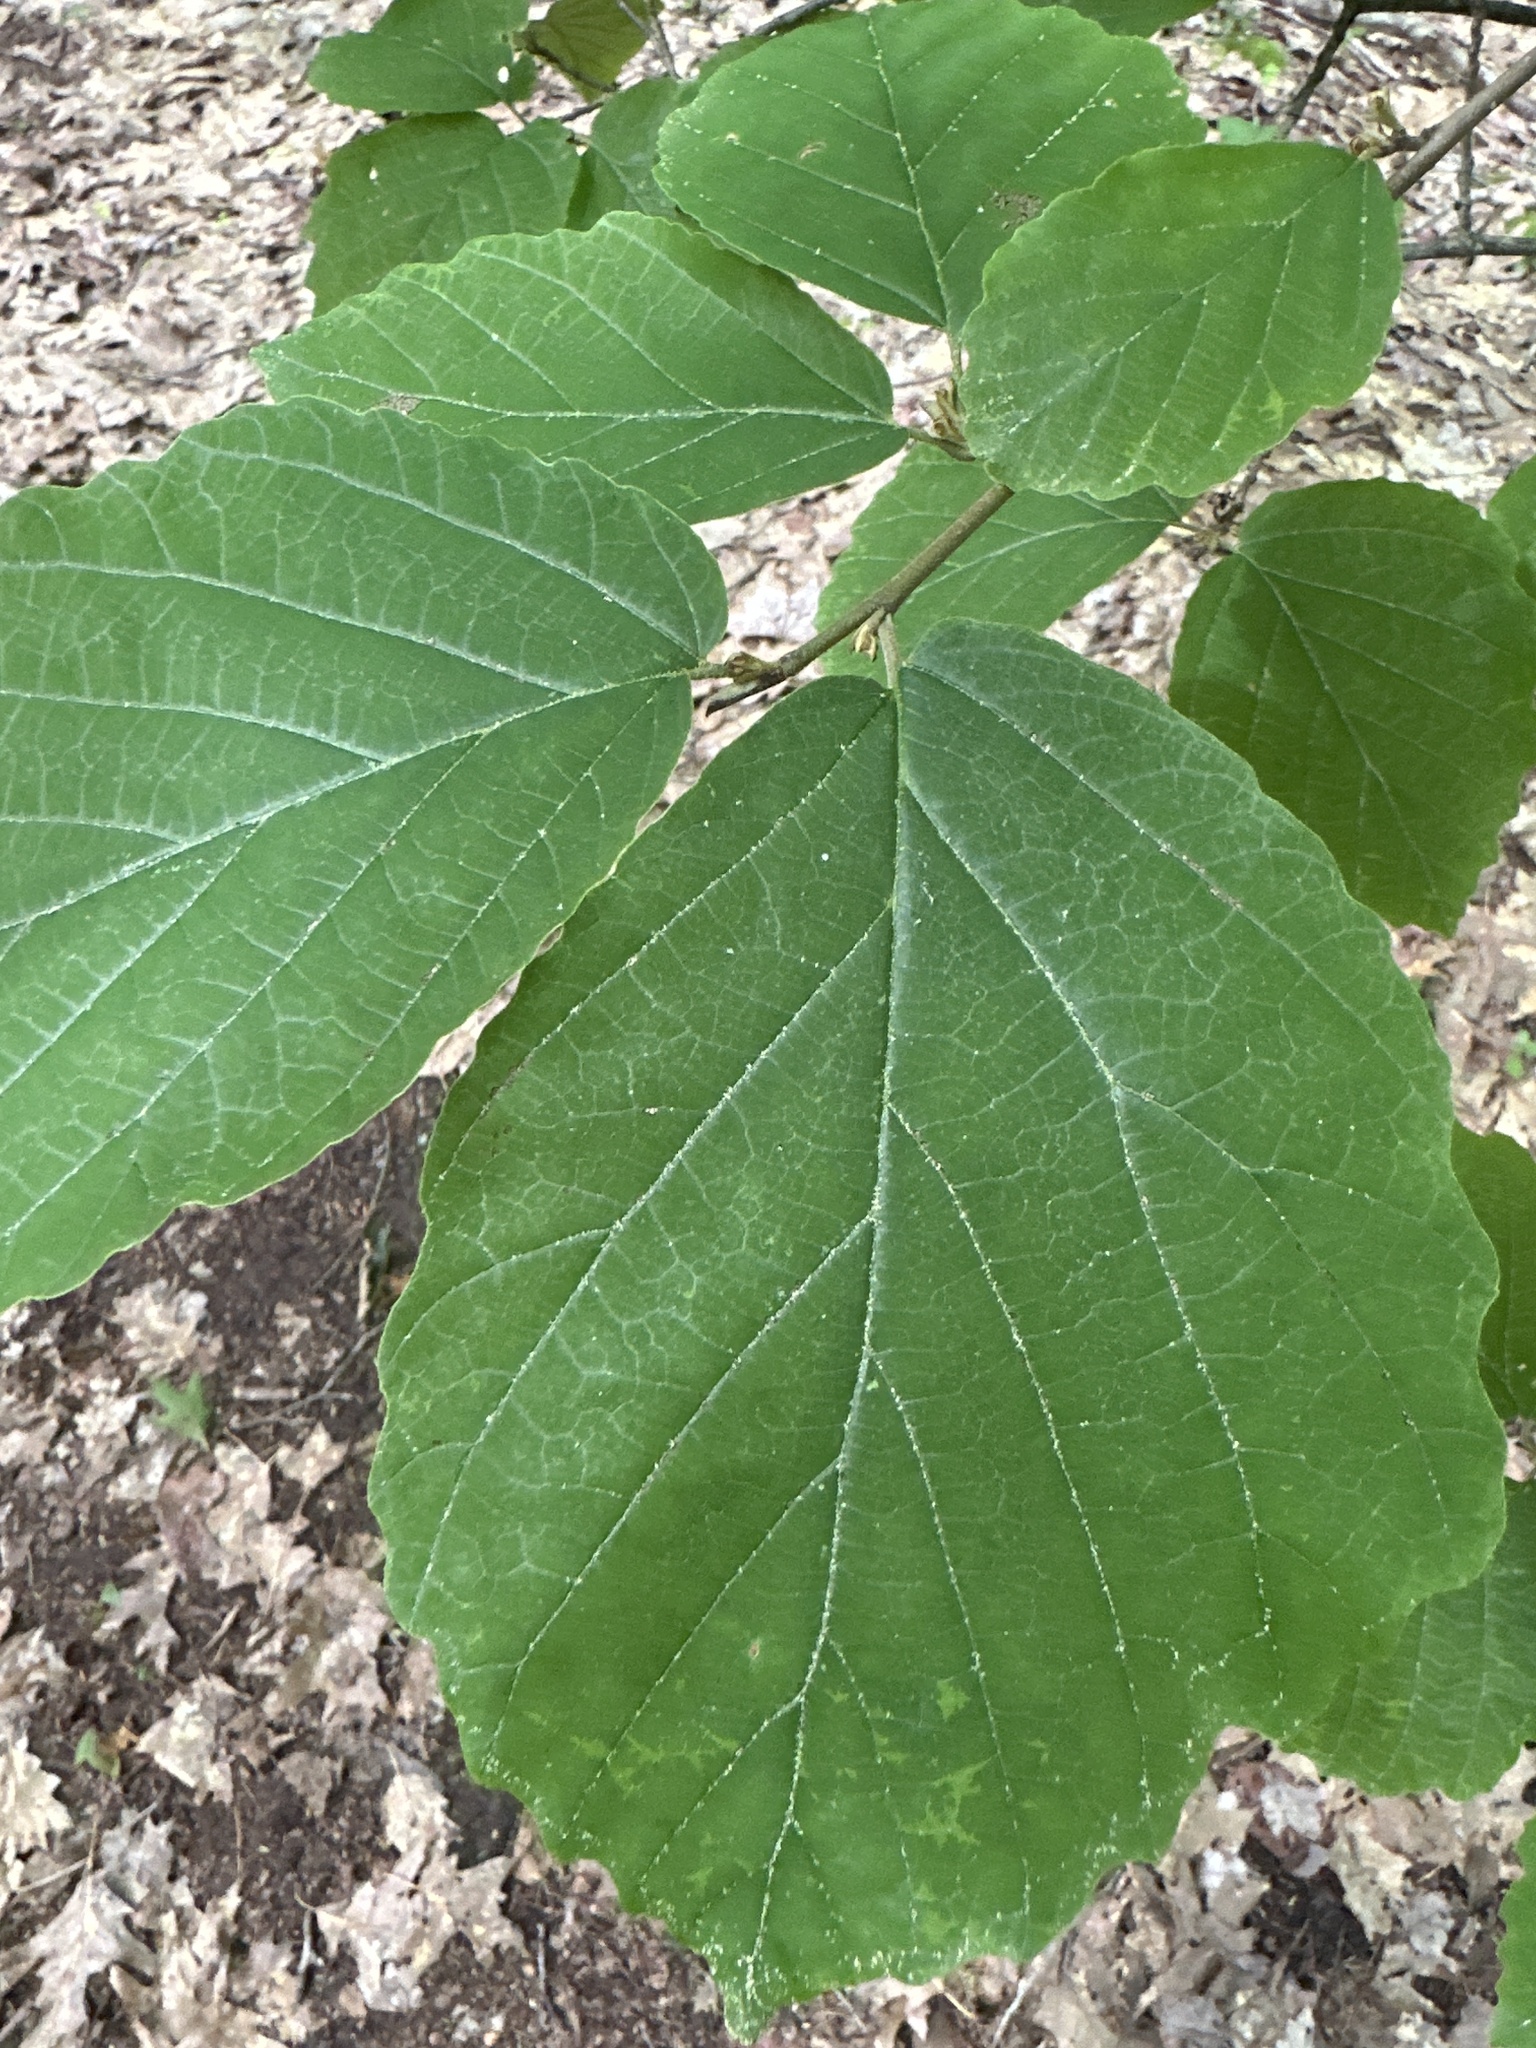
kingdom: Plantae
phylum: Tracheophyta
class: Magnoliopsida
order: Saxifragales
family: Hamamelidaceae
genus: Hamamelis
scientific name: Hamamelis virginiana
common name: Witch-hazel
